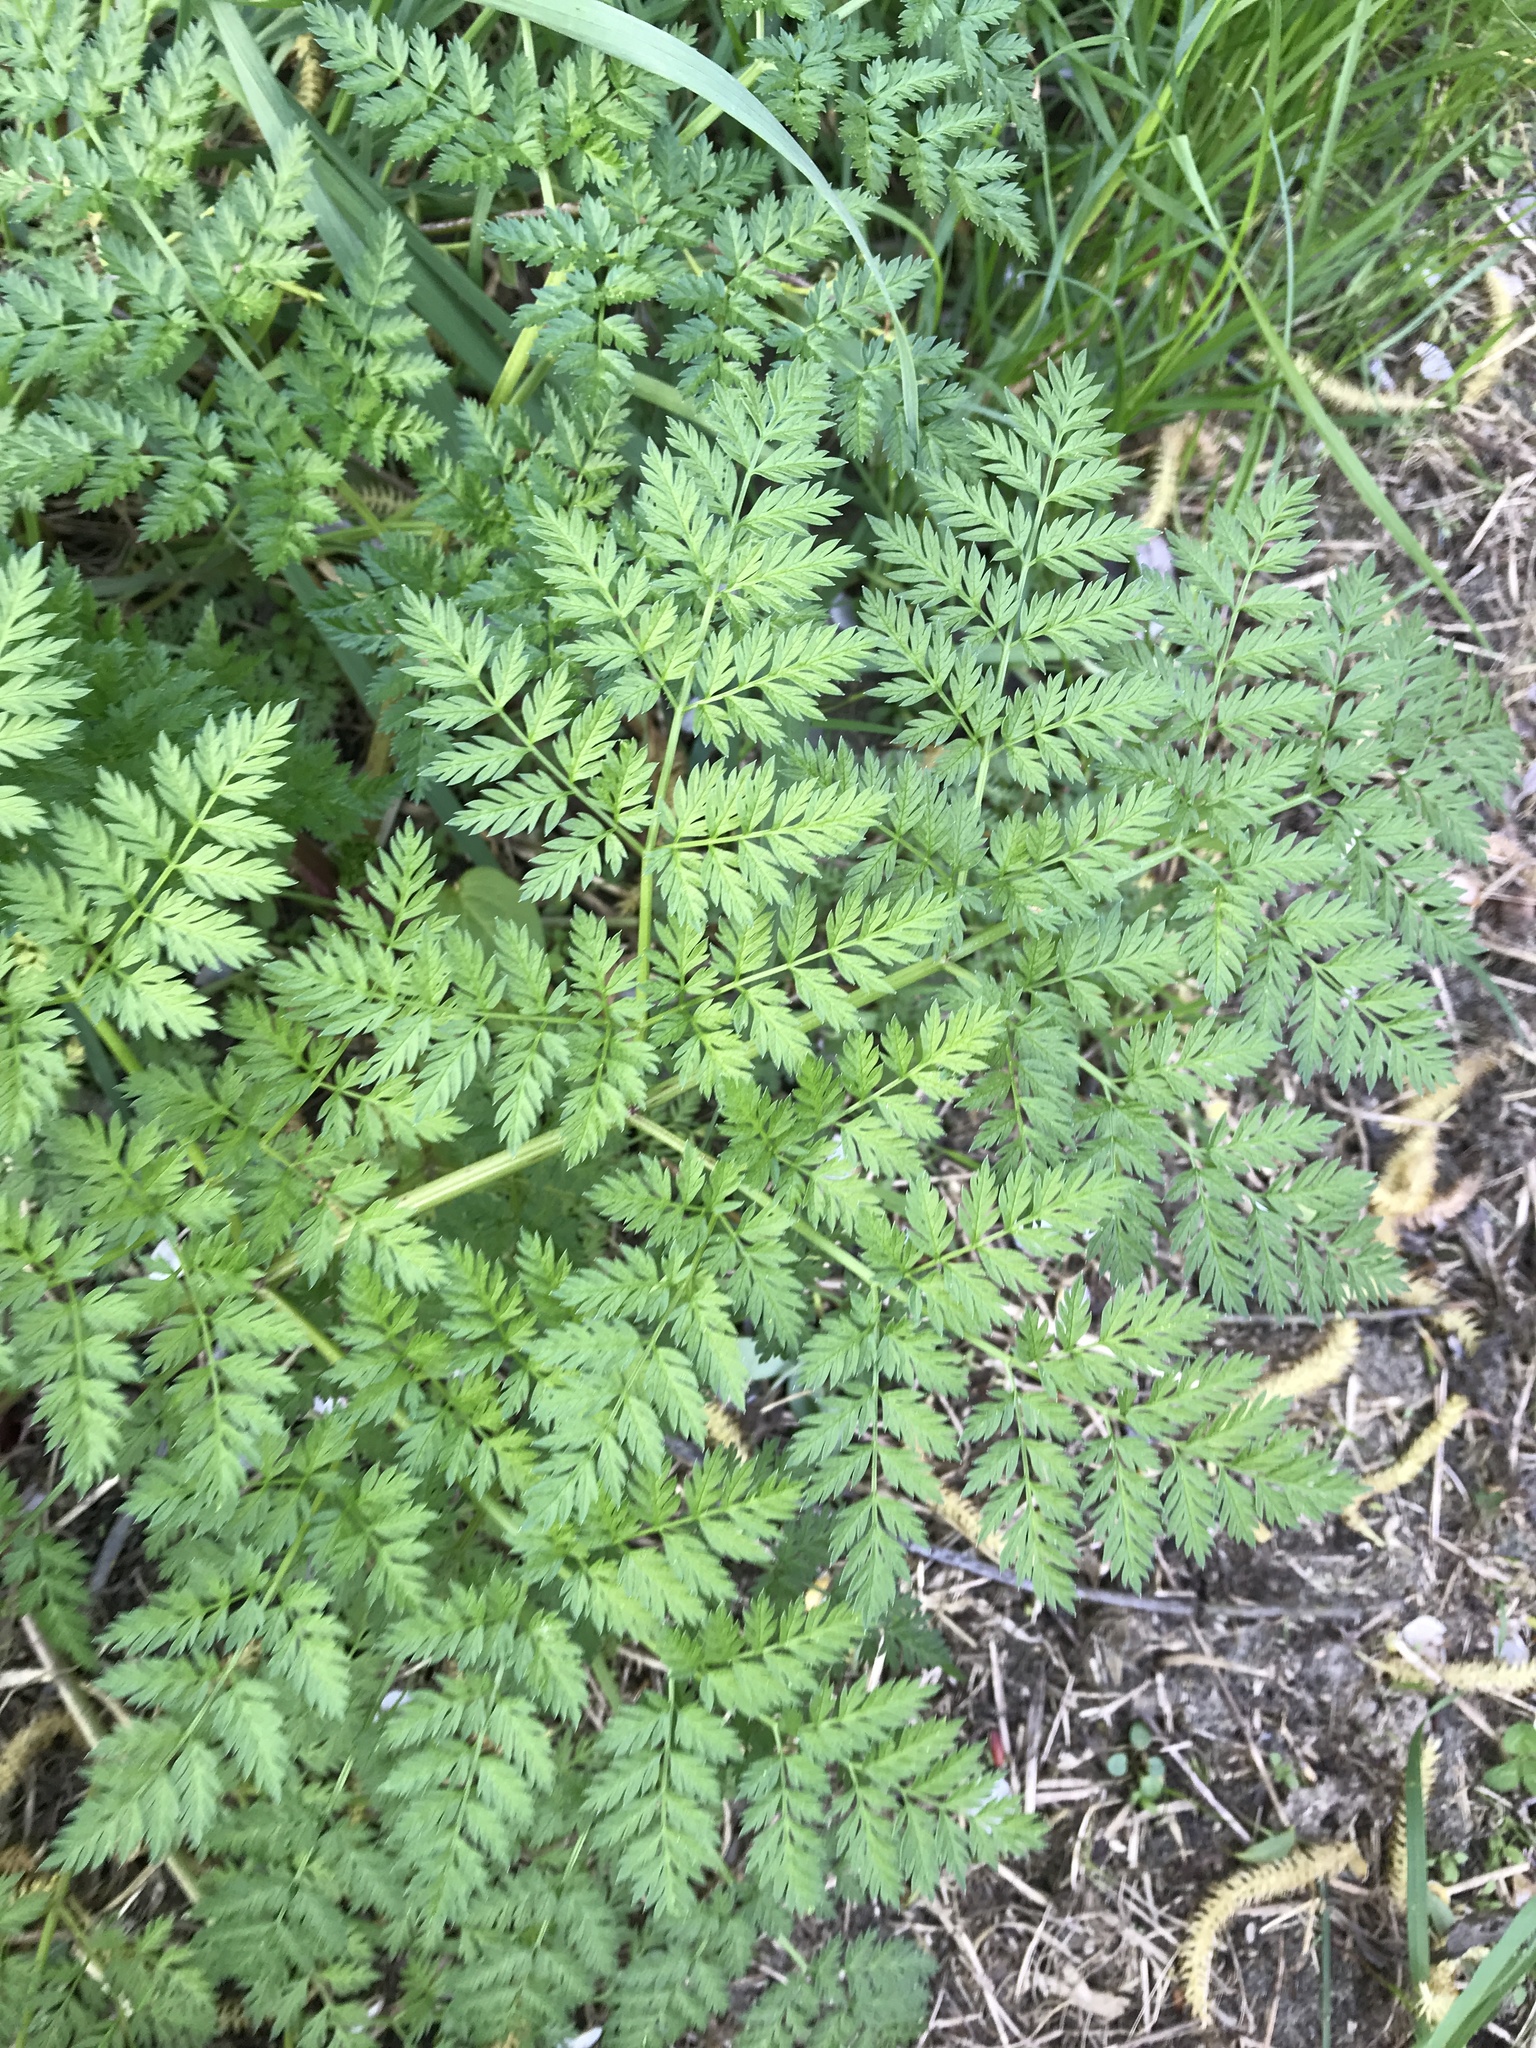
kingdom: Plantae
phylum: Tracheophyta
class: Magnoliopsida
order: Apiales
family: Apiaceae
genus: Conium
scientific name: Conium maculatum
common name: Hemlock
